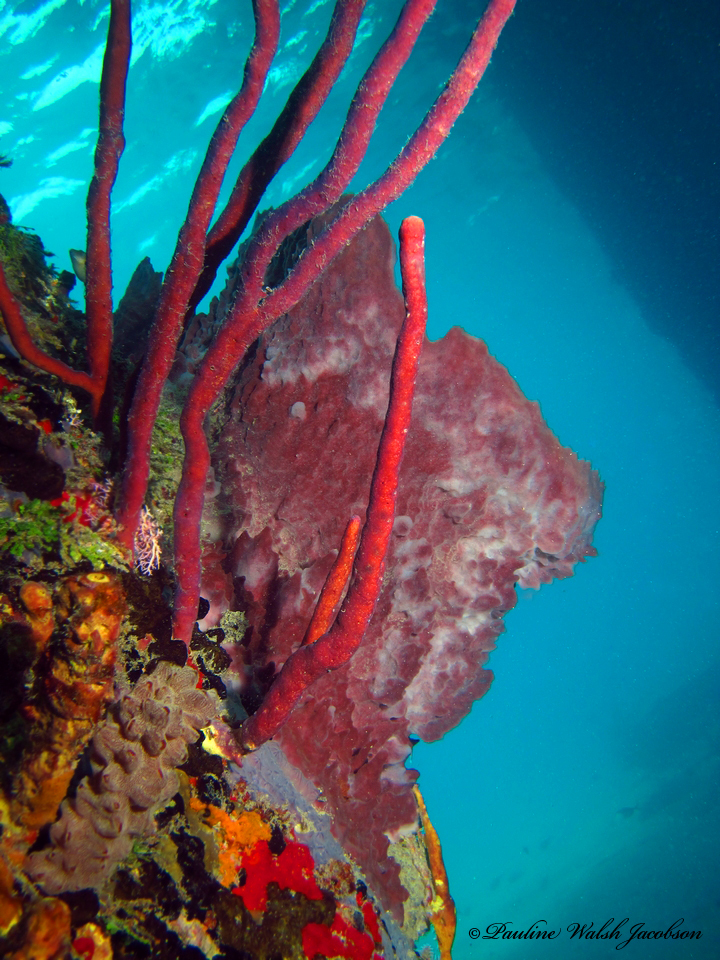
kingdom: Animalia
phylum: Porifera
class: Demospongiae
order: Haplosclerida
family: Petrosiidae
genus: Xestospongia
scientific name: Xestospongia muta
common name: Giant barrel sponge
